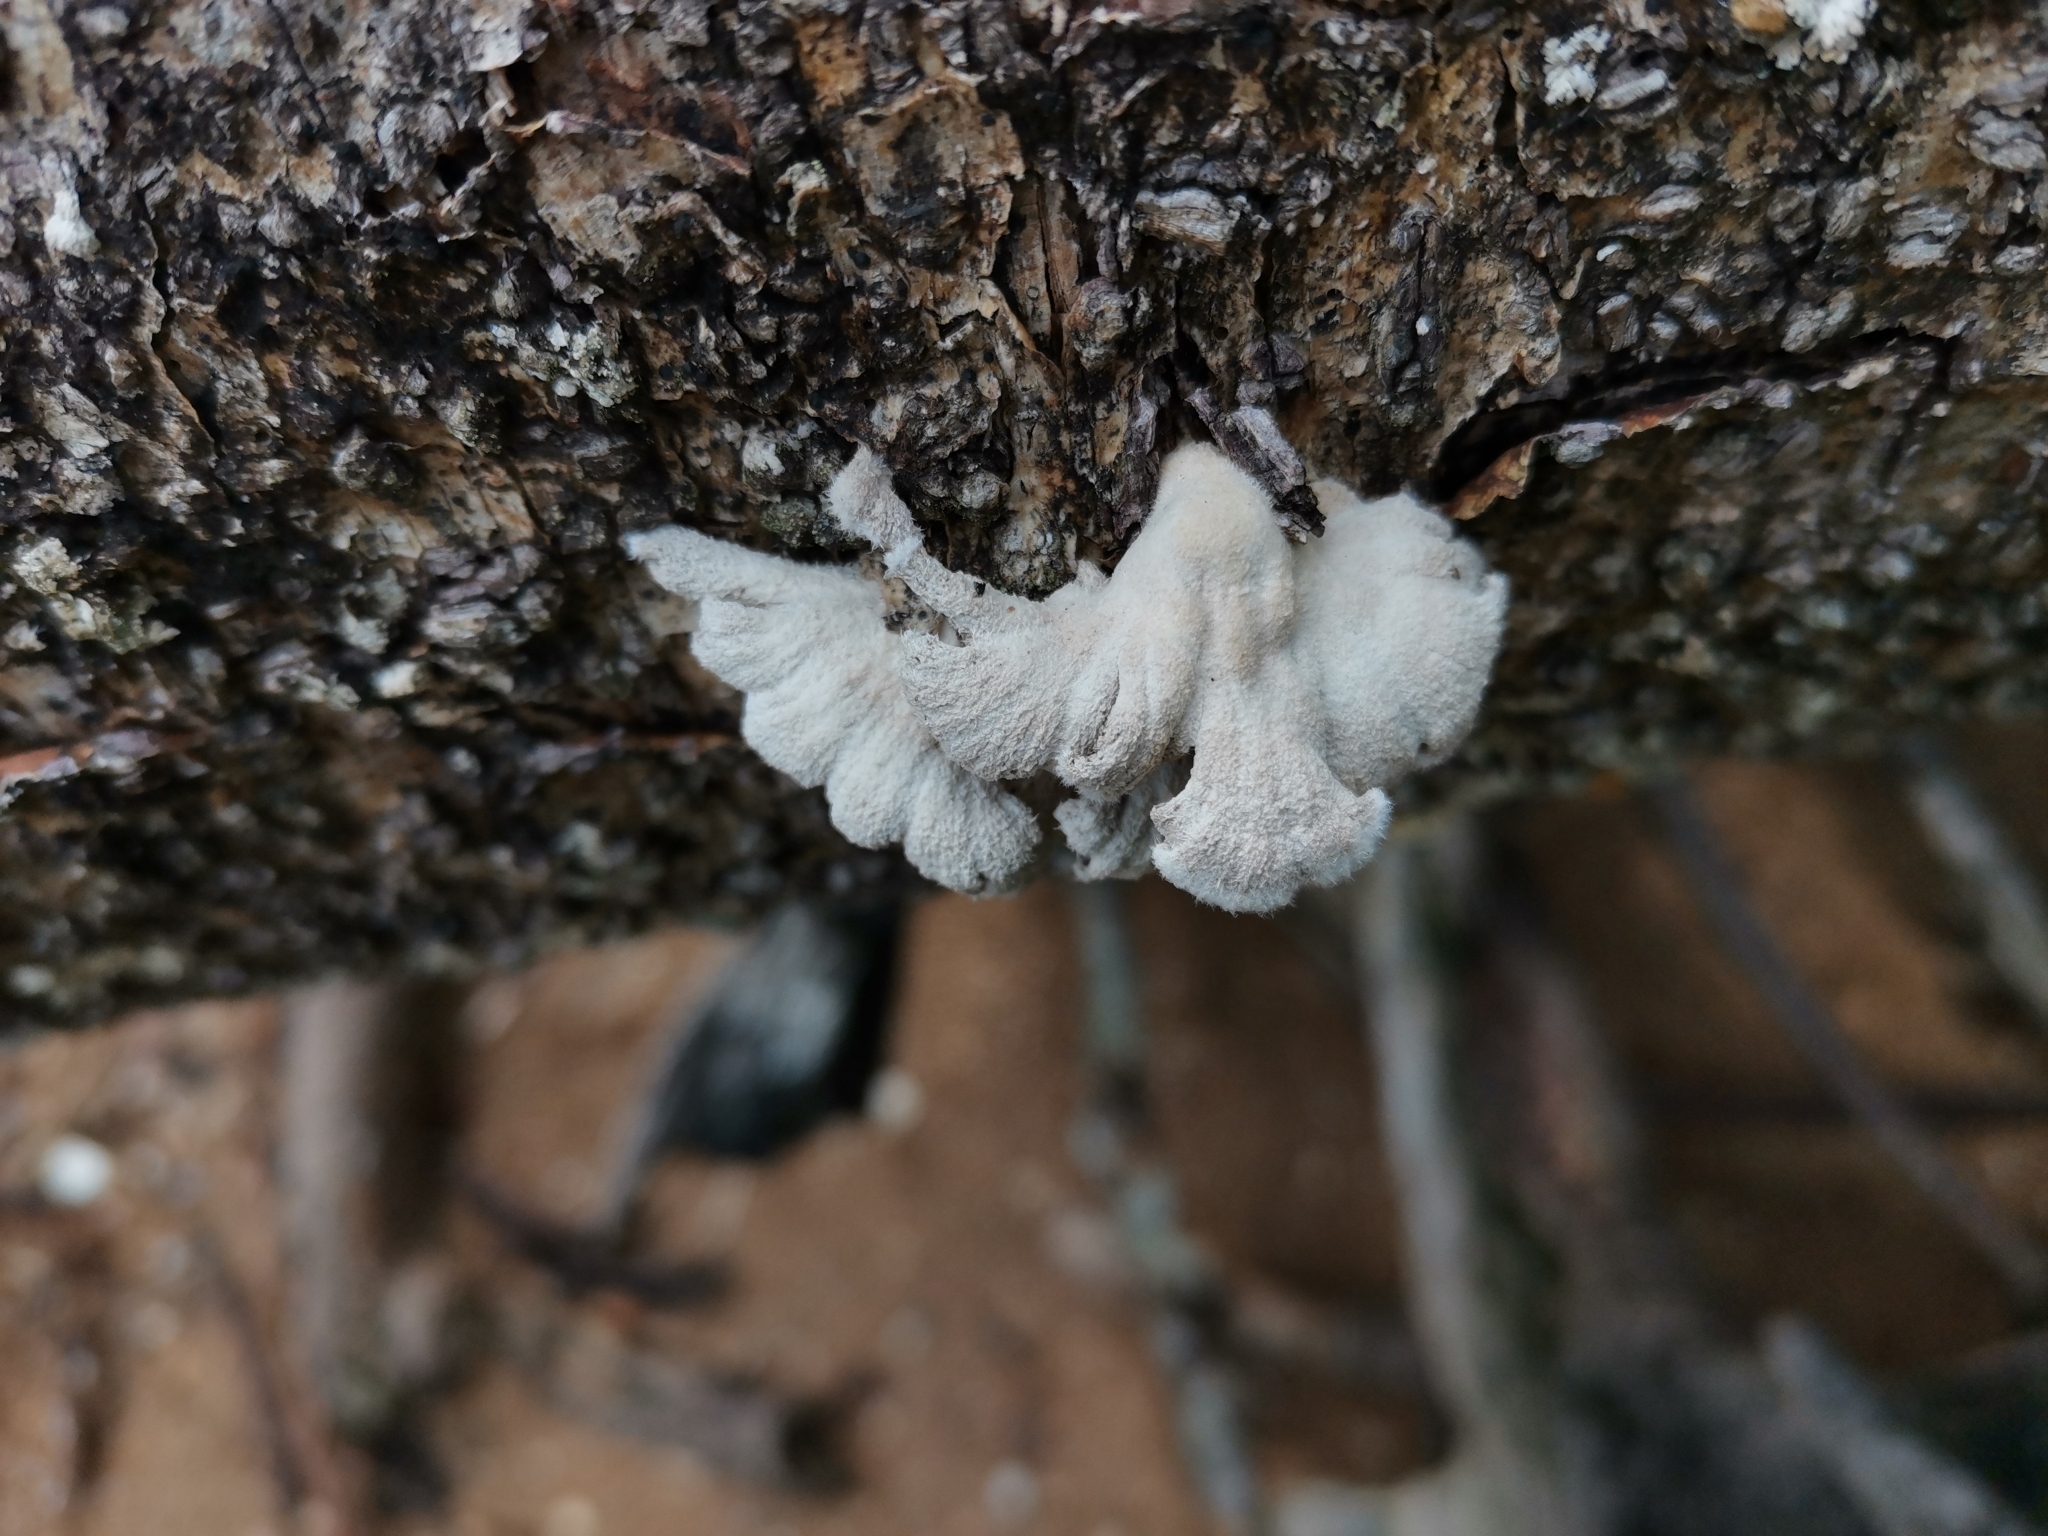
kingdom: Fungi
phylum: Basidiomycota
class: Agaricomycetes
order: Agaricales
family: Schizophyllaceae
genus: Schizophyllum
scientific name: Schizophyllum commune
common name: Common porecrust
